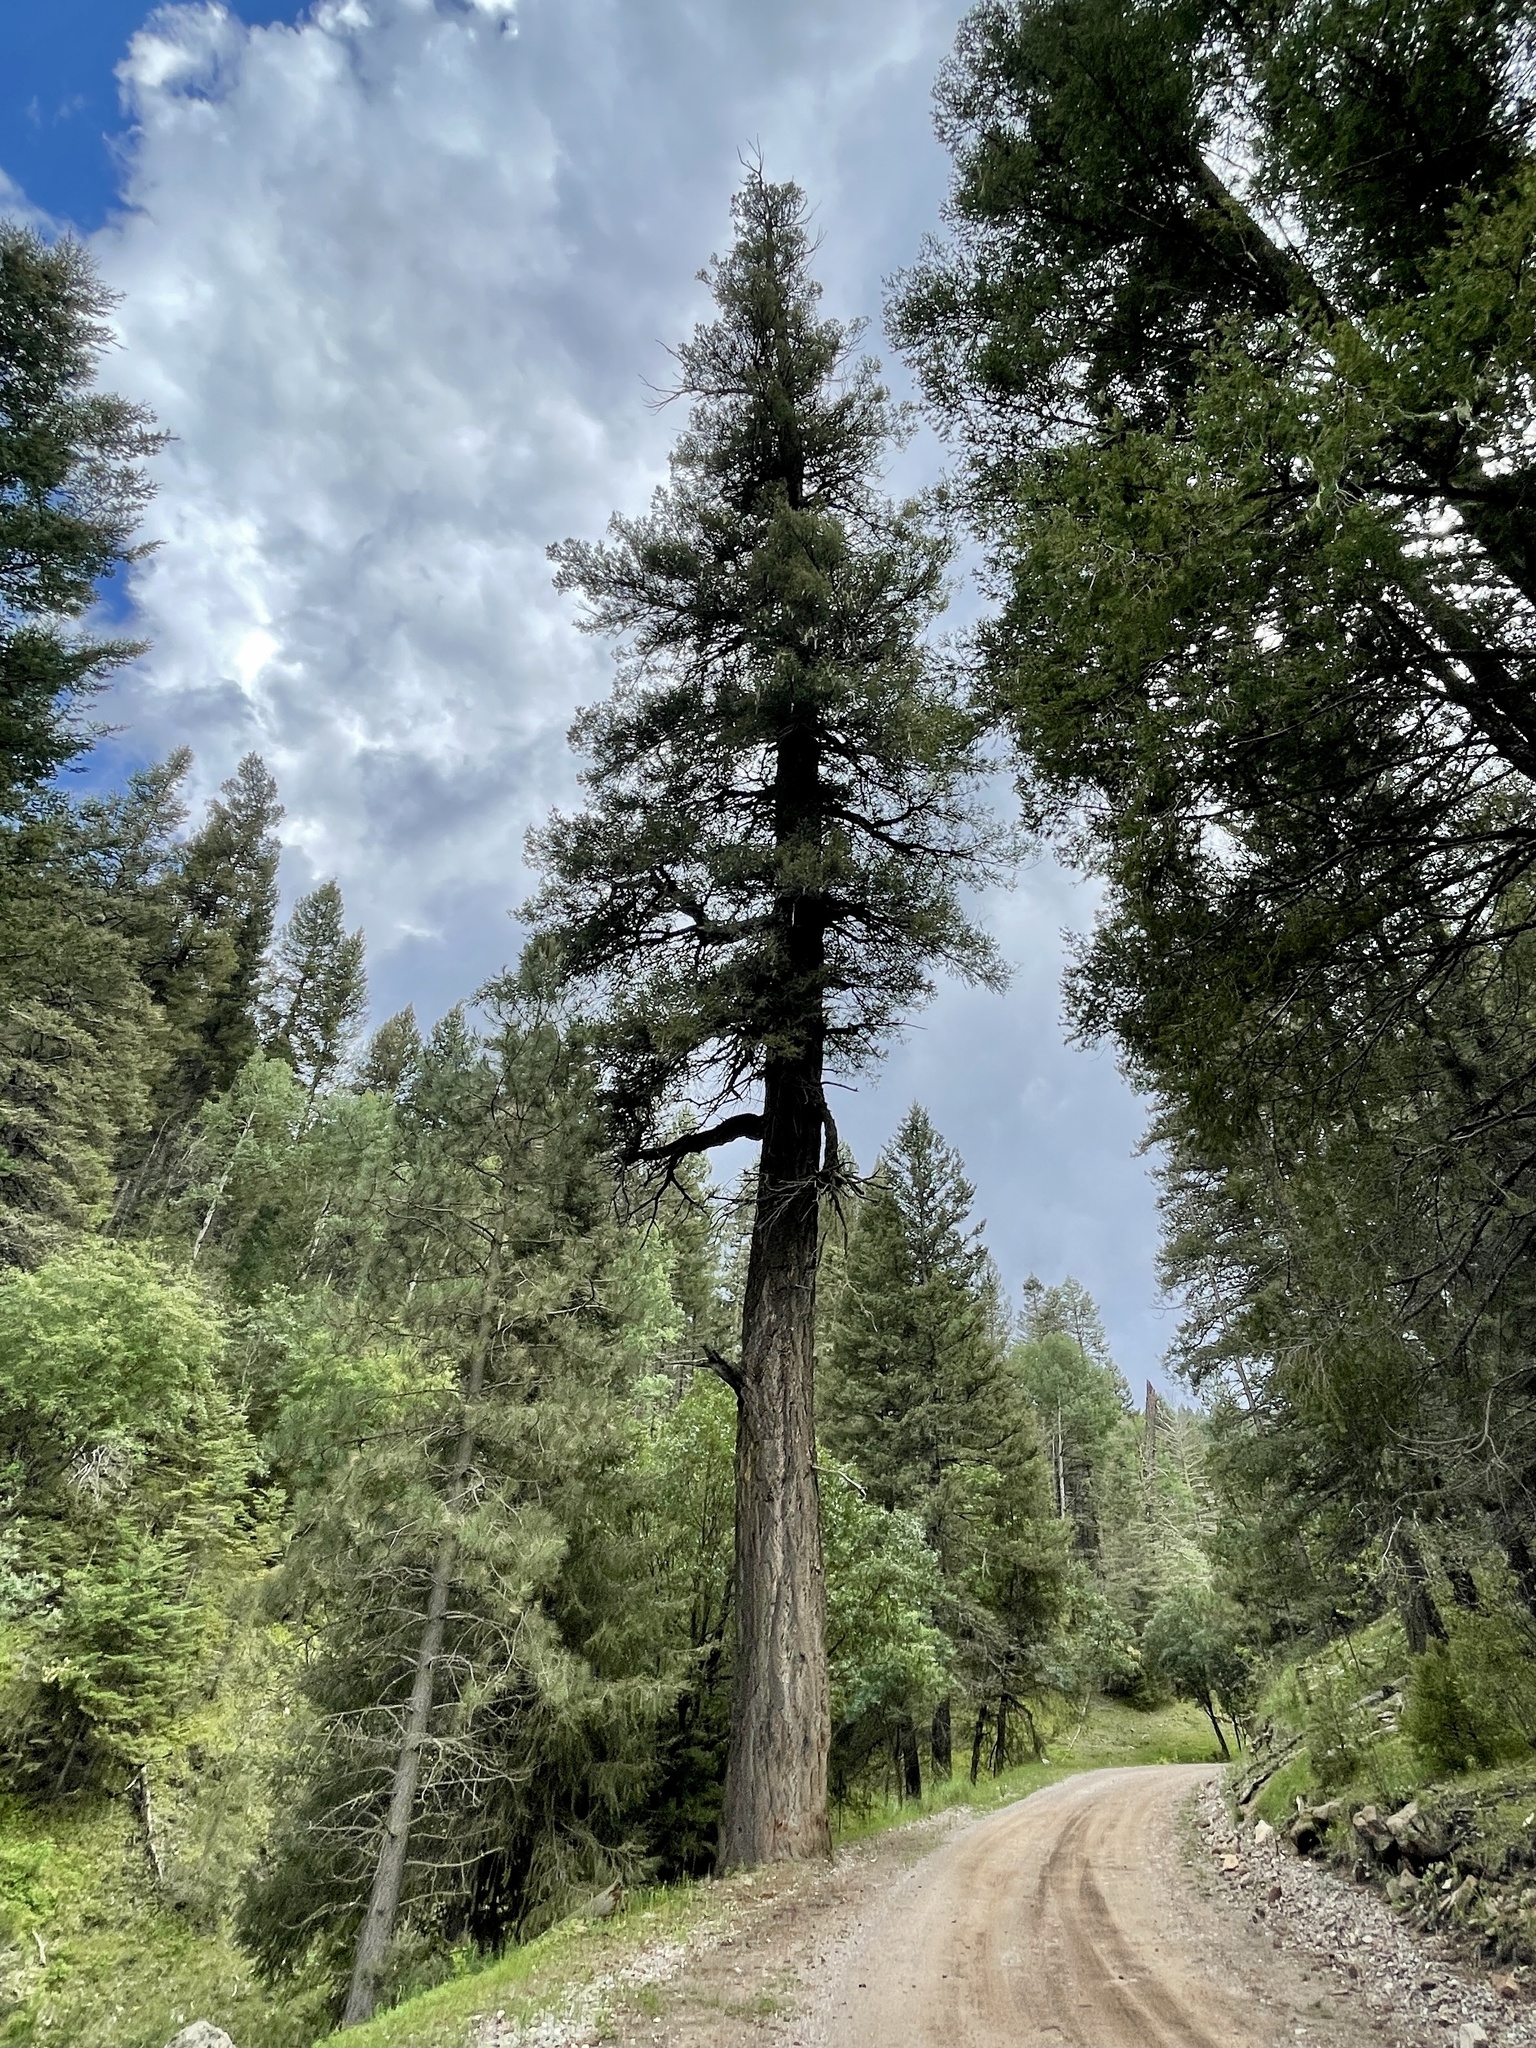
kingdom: Plantae
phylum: Tracheophyta
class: Pinopsida
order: Pinales
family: Pinaceae
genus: Pseudotsuga
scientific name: Pseudotsuga menziesii
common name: Douglas fir
